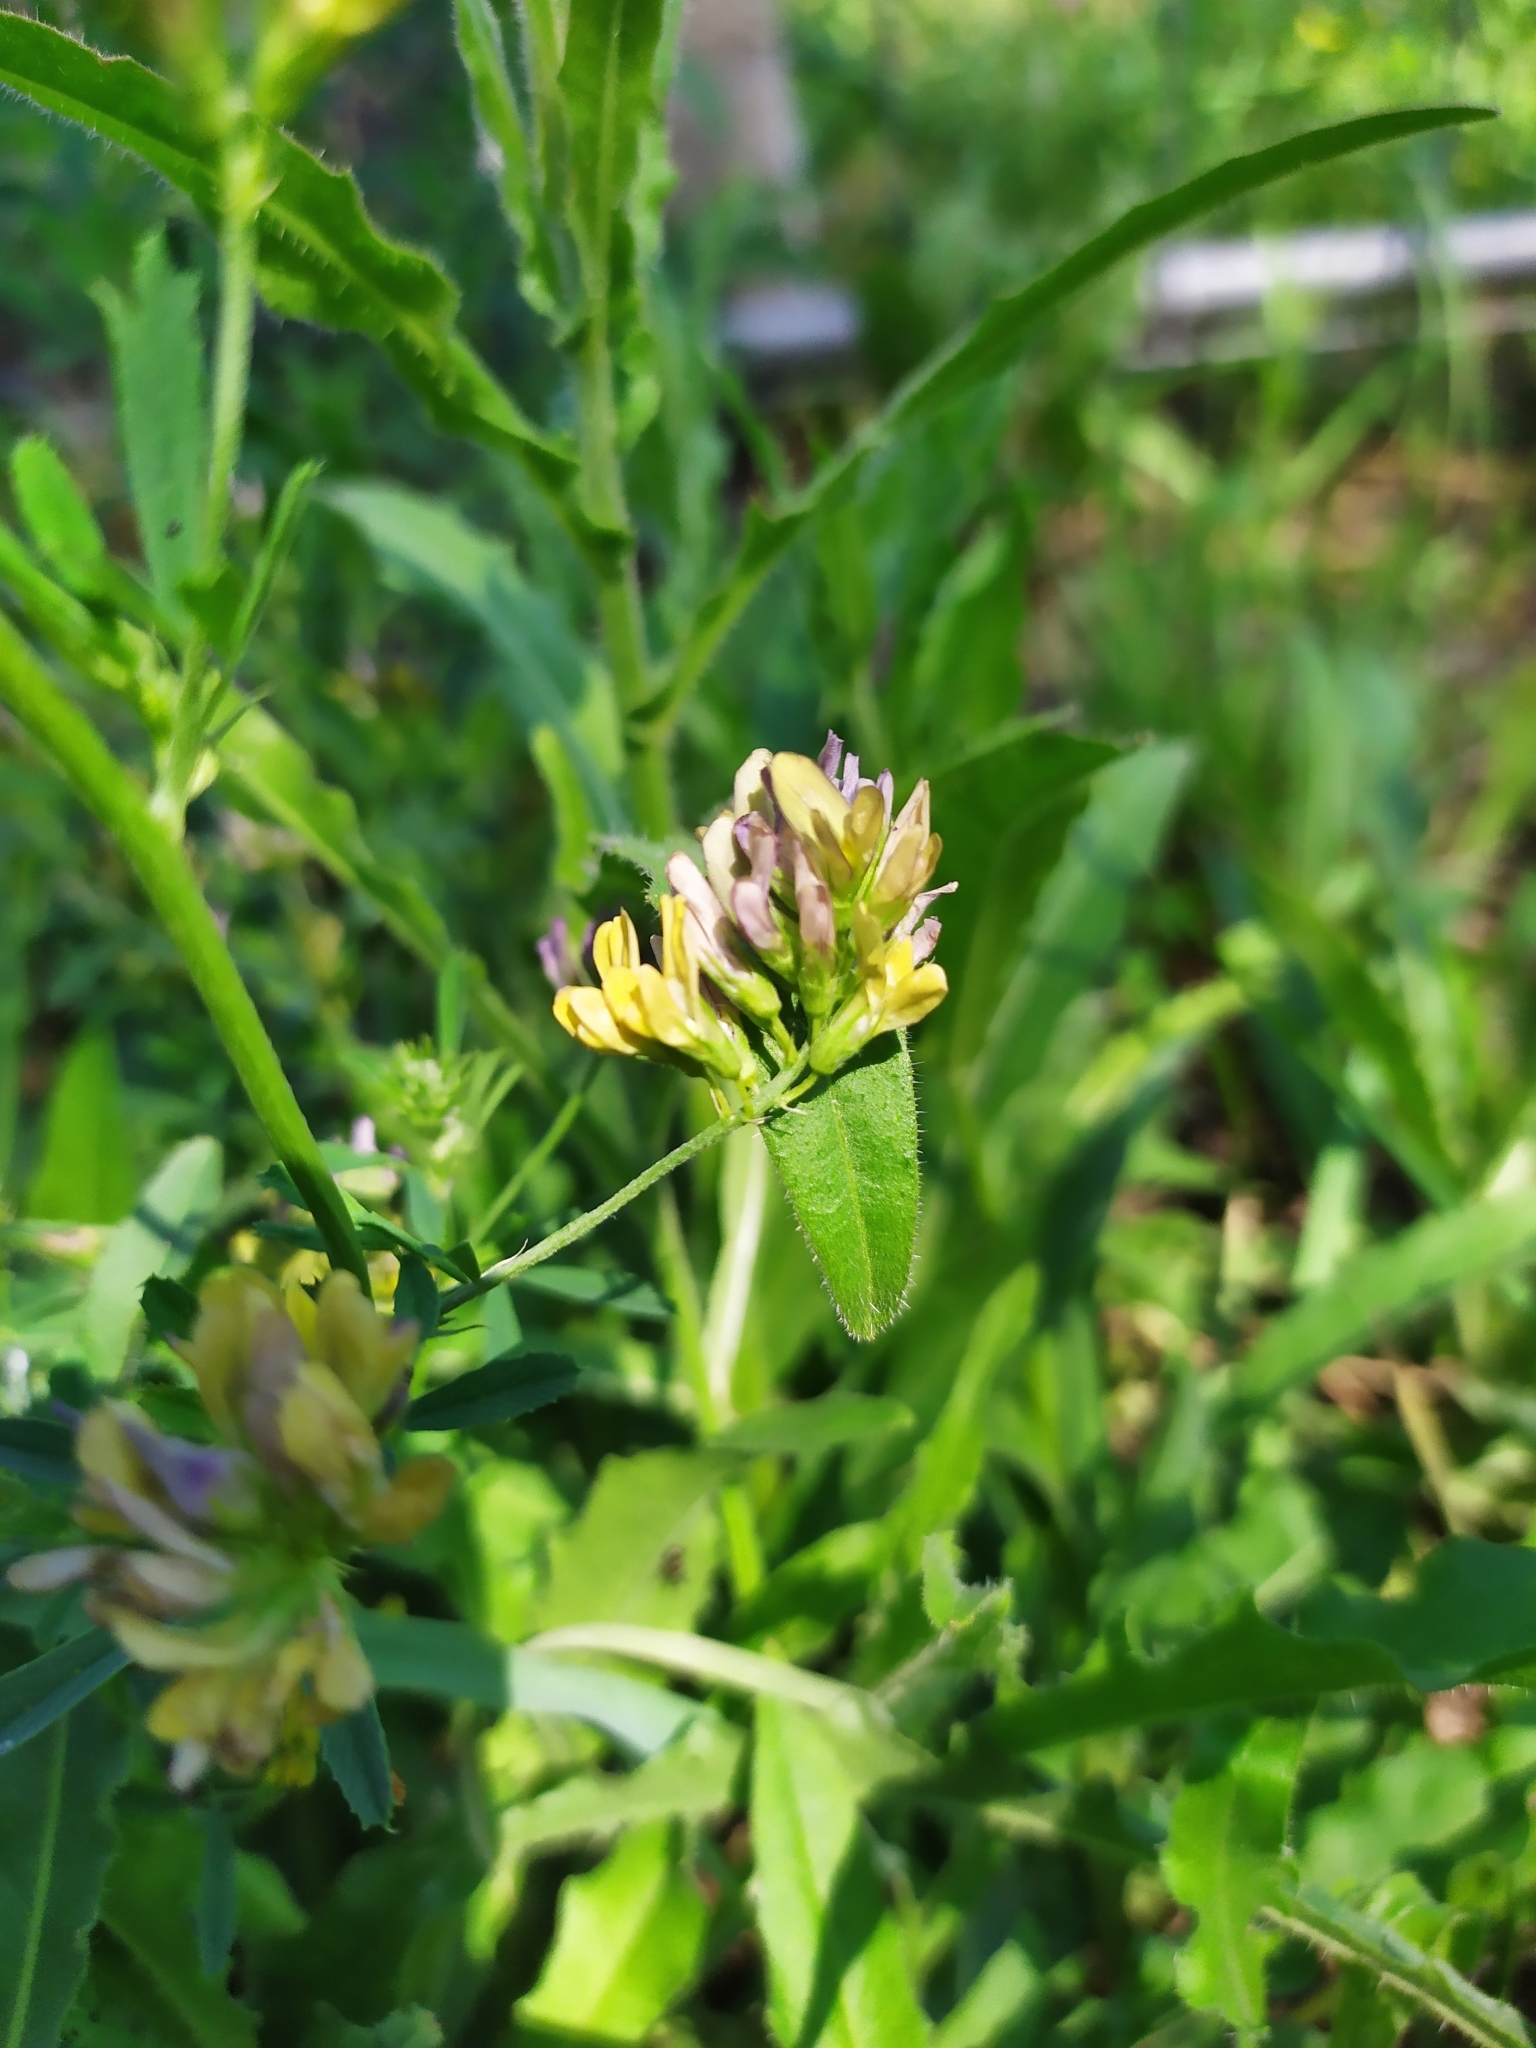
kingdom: Plantae
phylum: Tracheophyta
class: Magnoliopsida
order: Fabales
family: Fabaceae
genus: Medicago
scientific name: Medicago sativa
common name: Alfalfa
